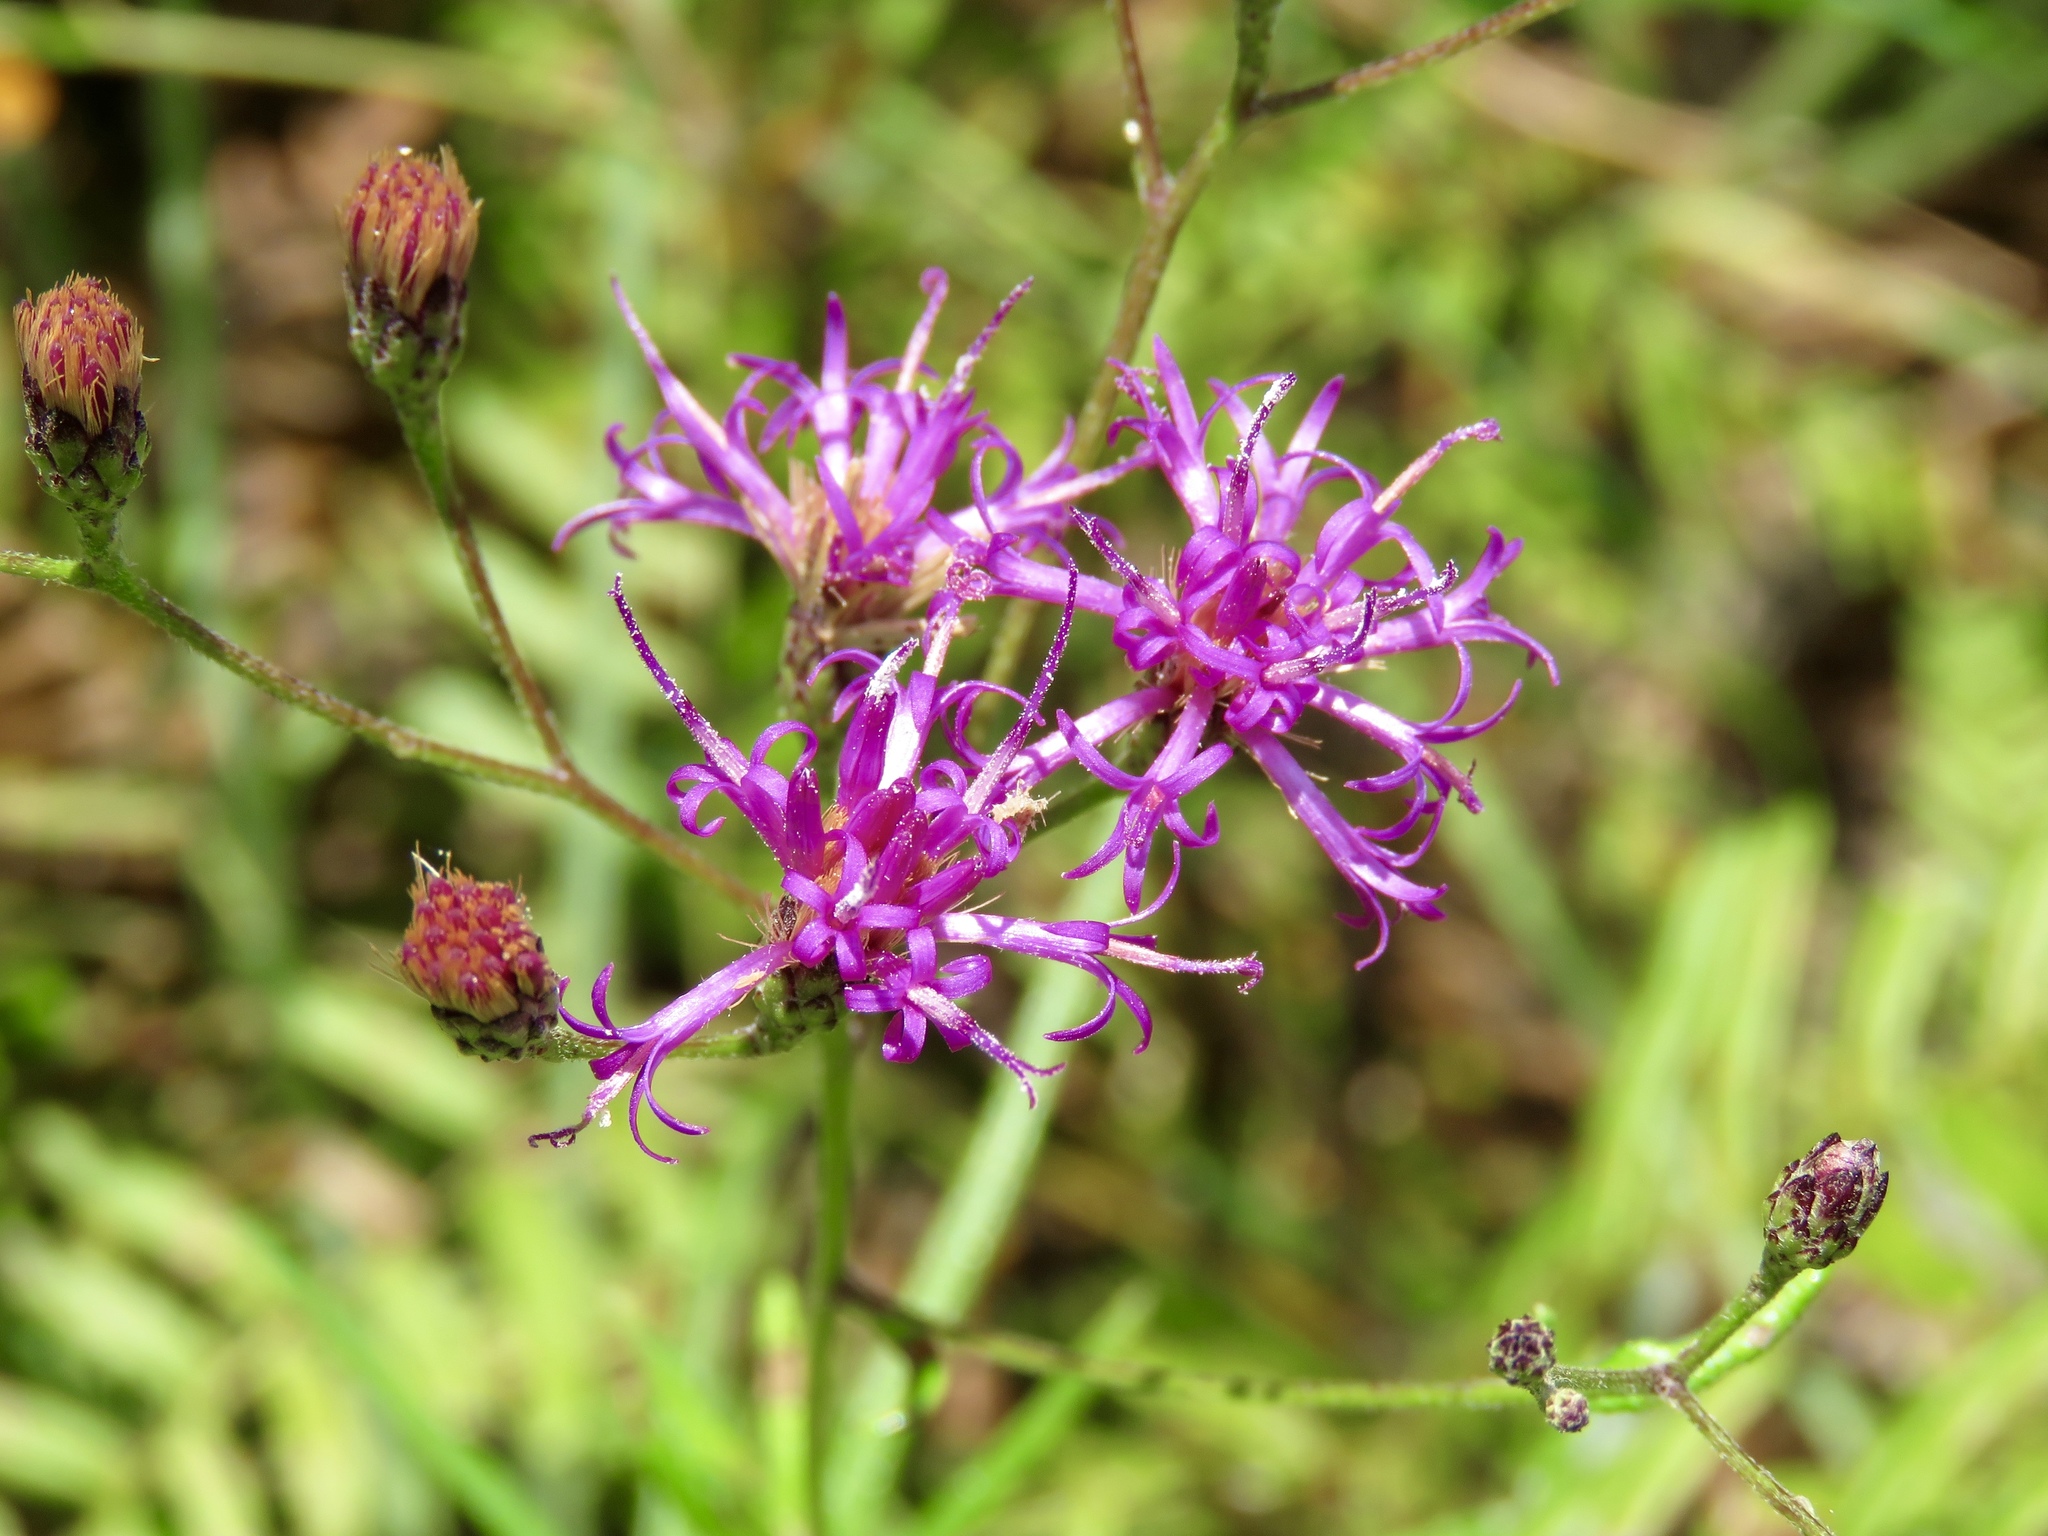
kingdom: Plantae
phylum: Tracheophyta
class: Magnoliopsida
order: Asterales
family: Asteraceae
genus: Vernonia
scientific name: Vernonia texana
